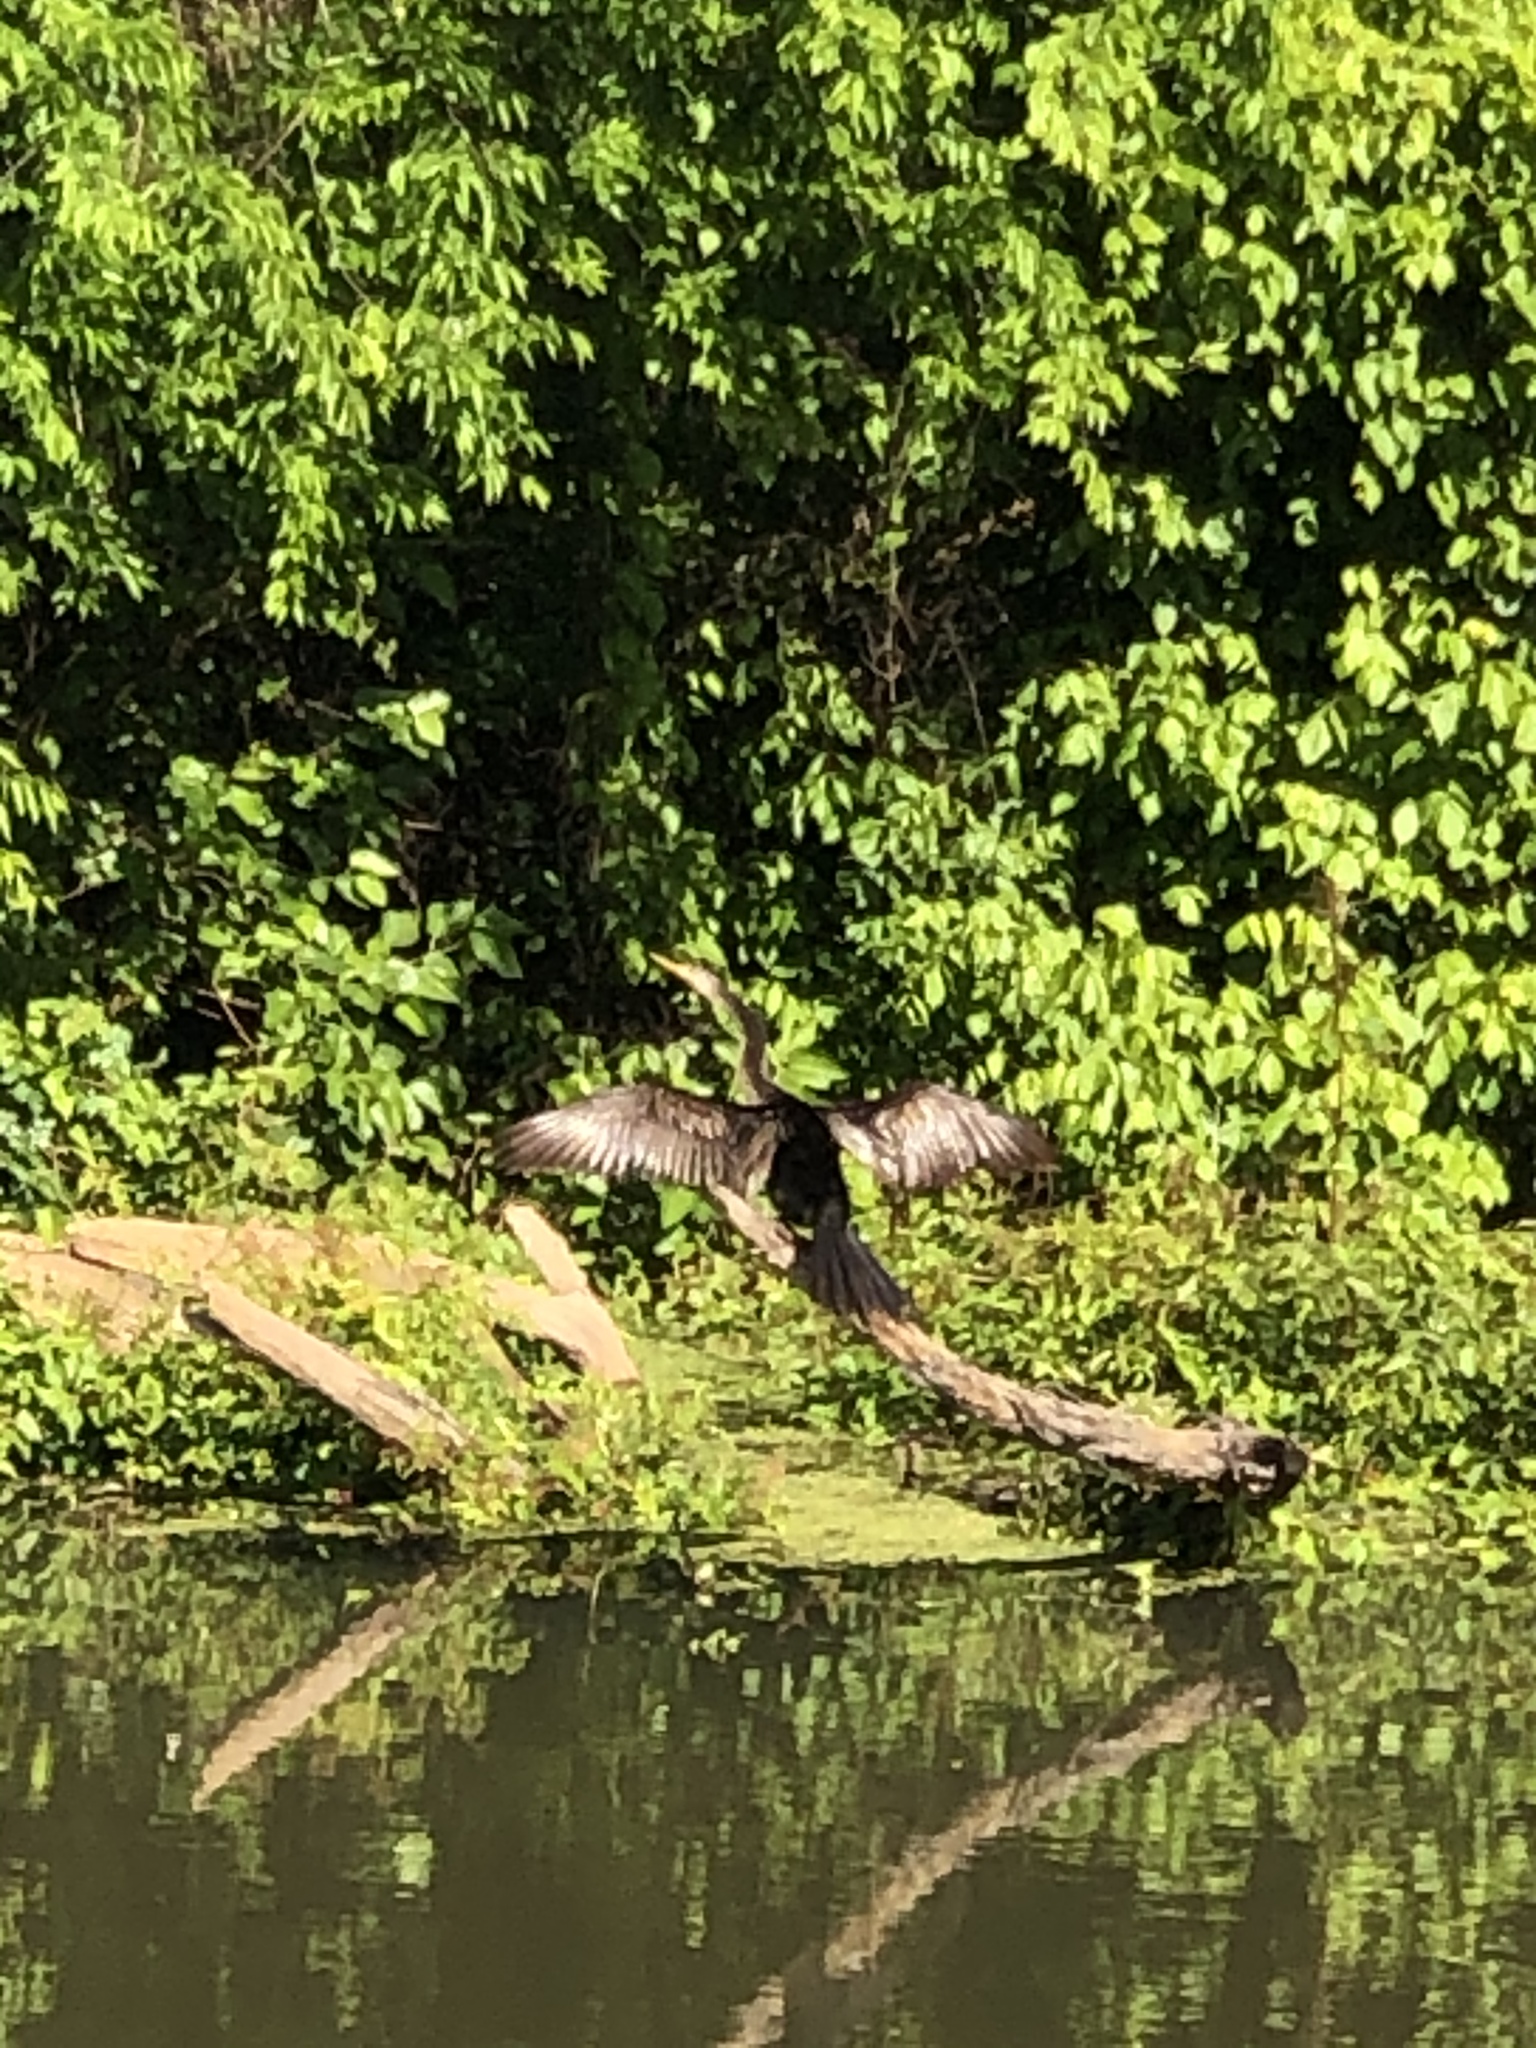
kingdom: Animalia
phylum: Chordata
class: Aves
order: Suliformes
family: Anhingidae
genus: Anhinga
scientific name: Anhinga anhinga
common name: Anhinga
